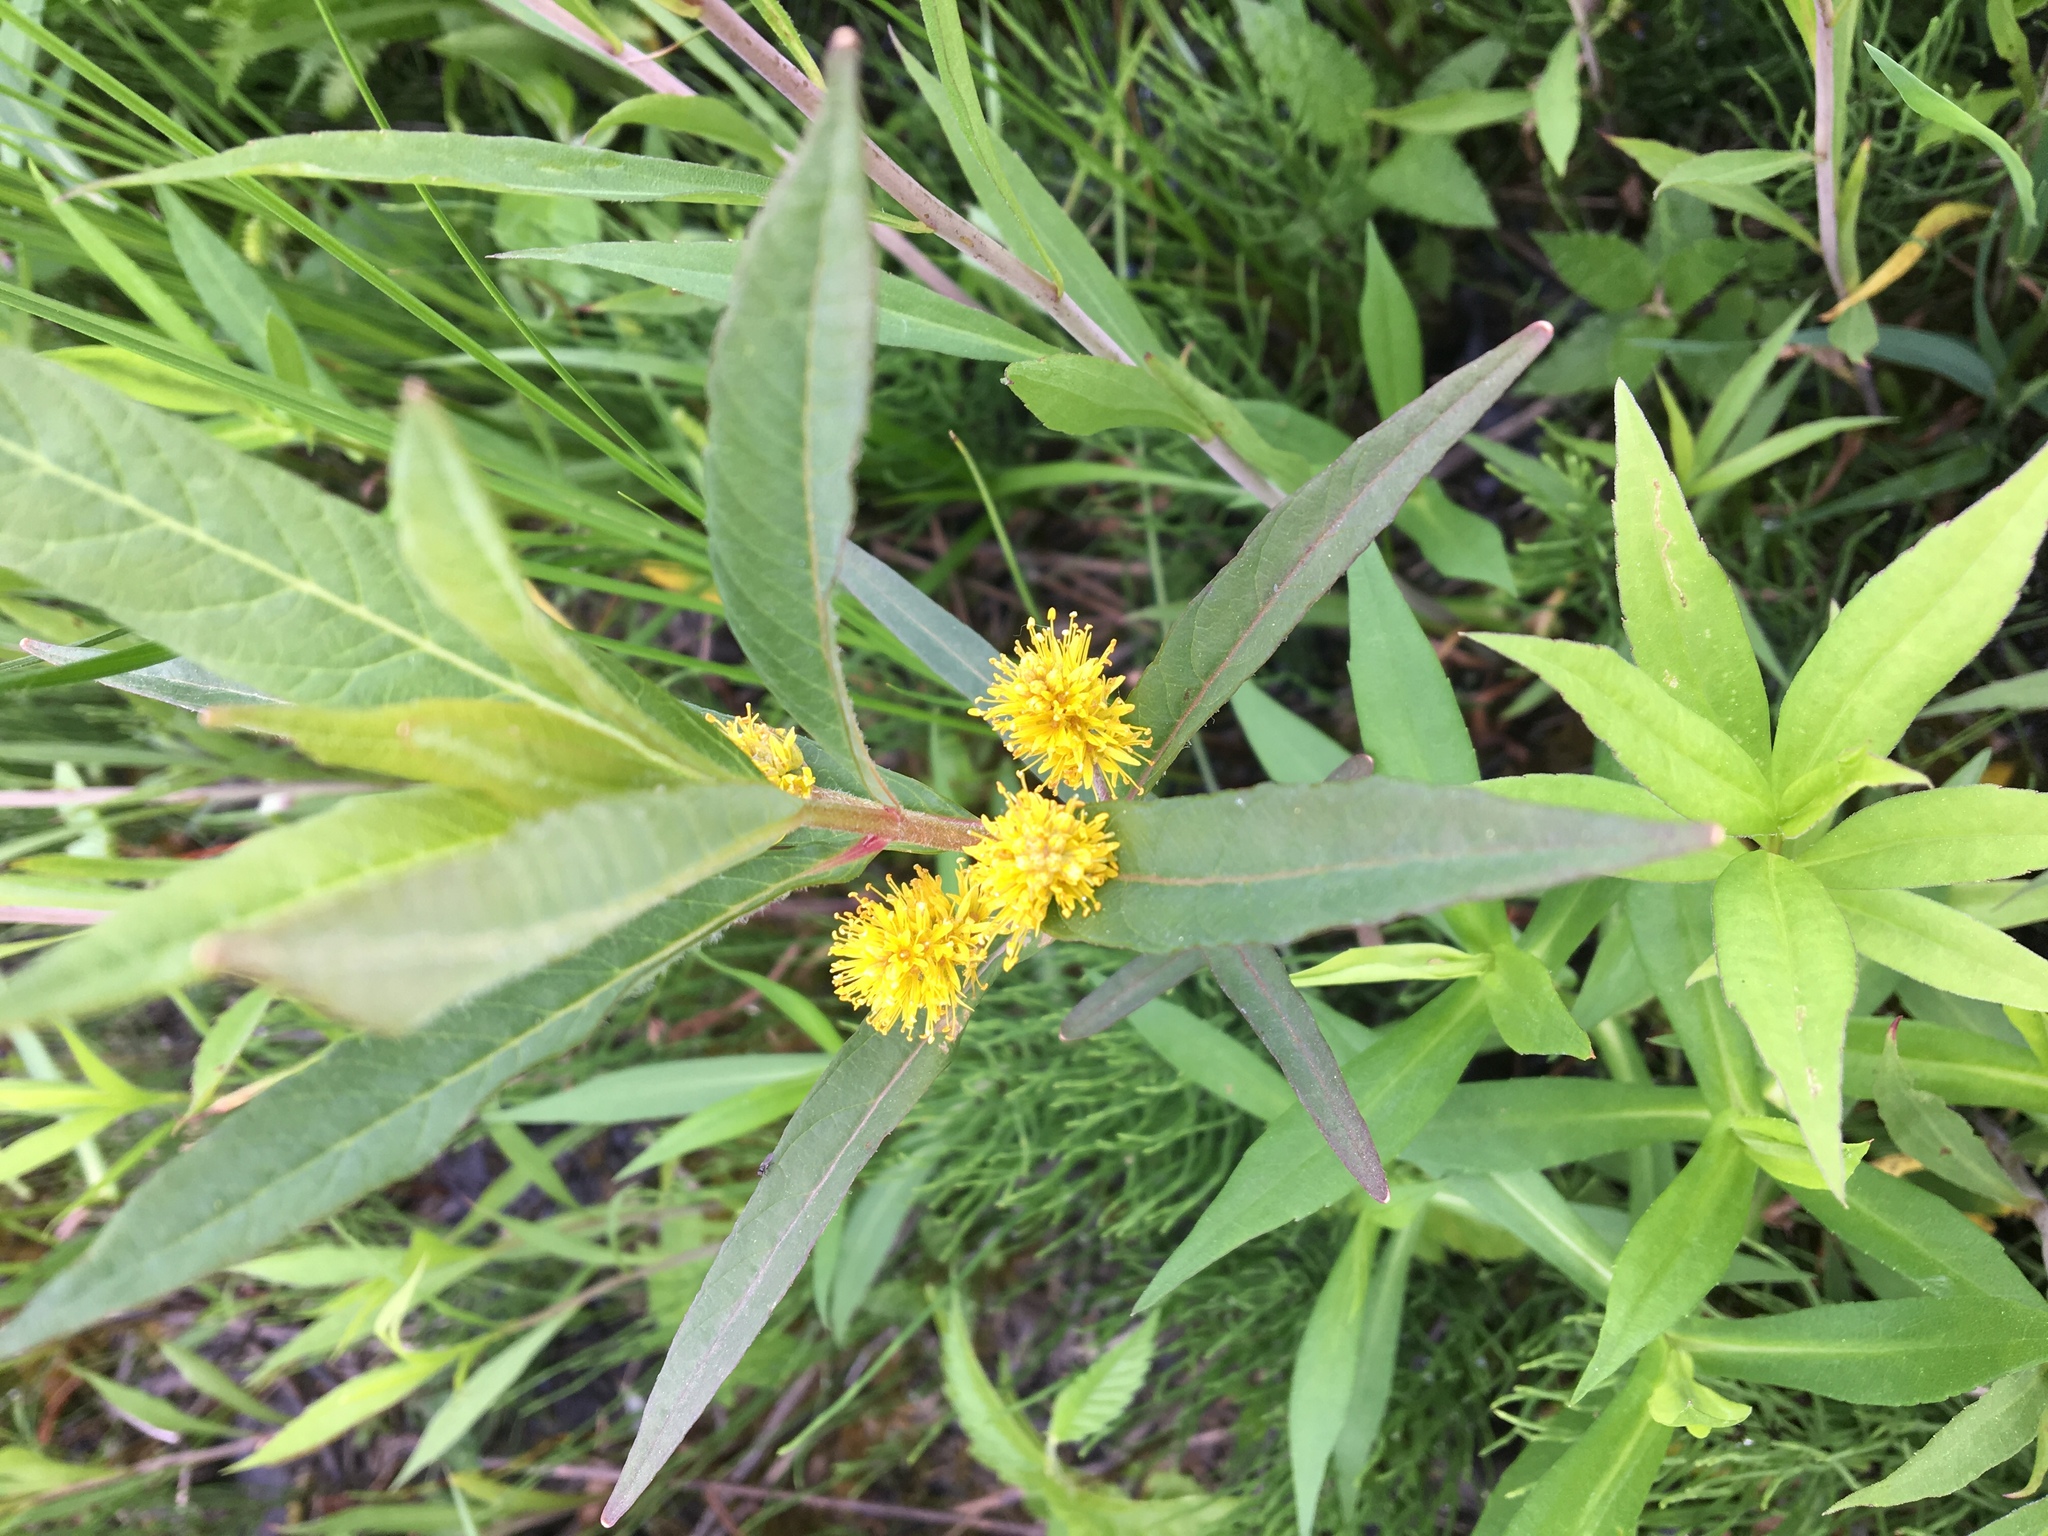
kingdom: Plantae
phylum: Tracheophyta
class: Magnoliopsida
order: Ericales
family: Primulaceae
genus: Lysimachia
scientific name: Lysimachia thyrsiflora
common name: Tufted loosestrife
